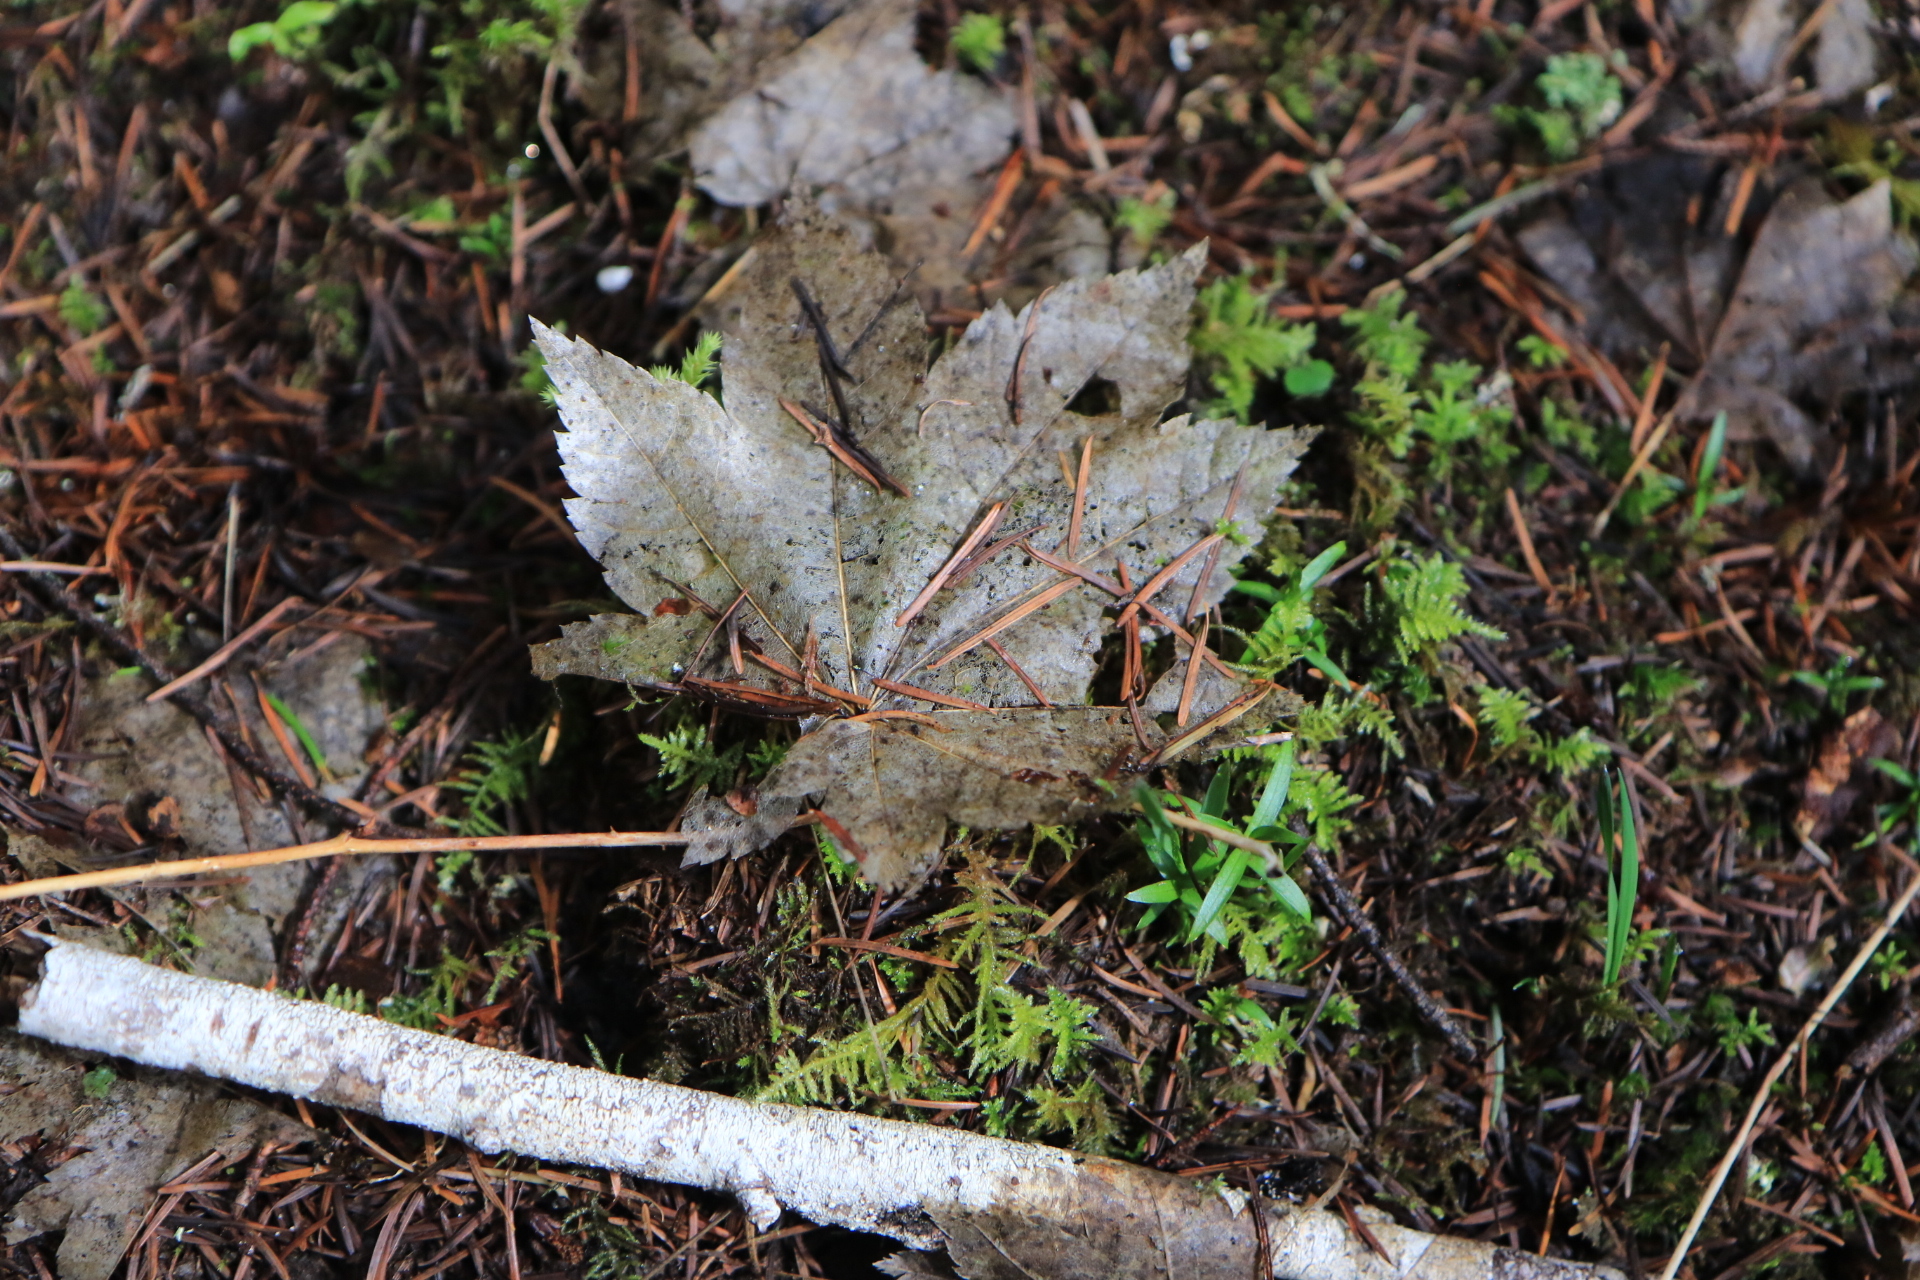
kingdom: Plantae
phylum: Tracheophyta
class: Magnoliopsida
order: Sapindales
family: Sapindaceae
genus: Acer
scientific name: Acer circinatum
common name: Vine maple
